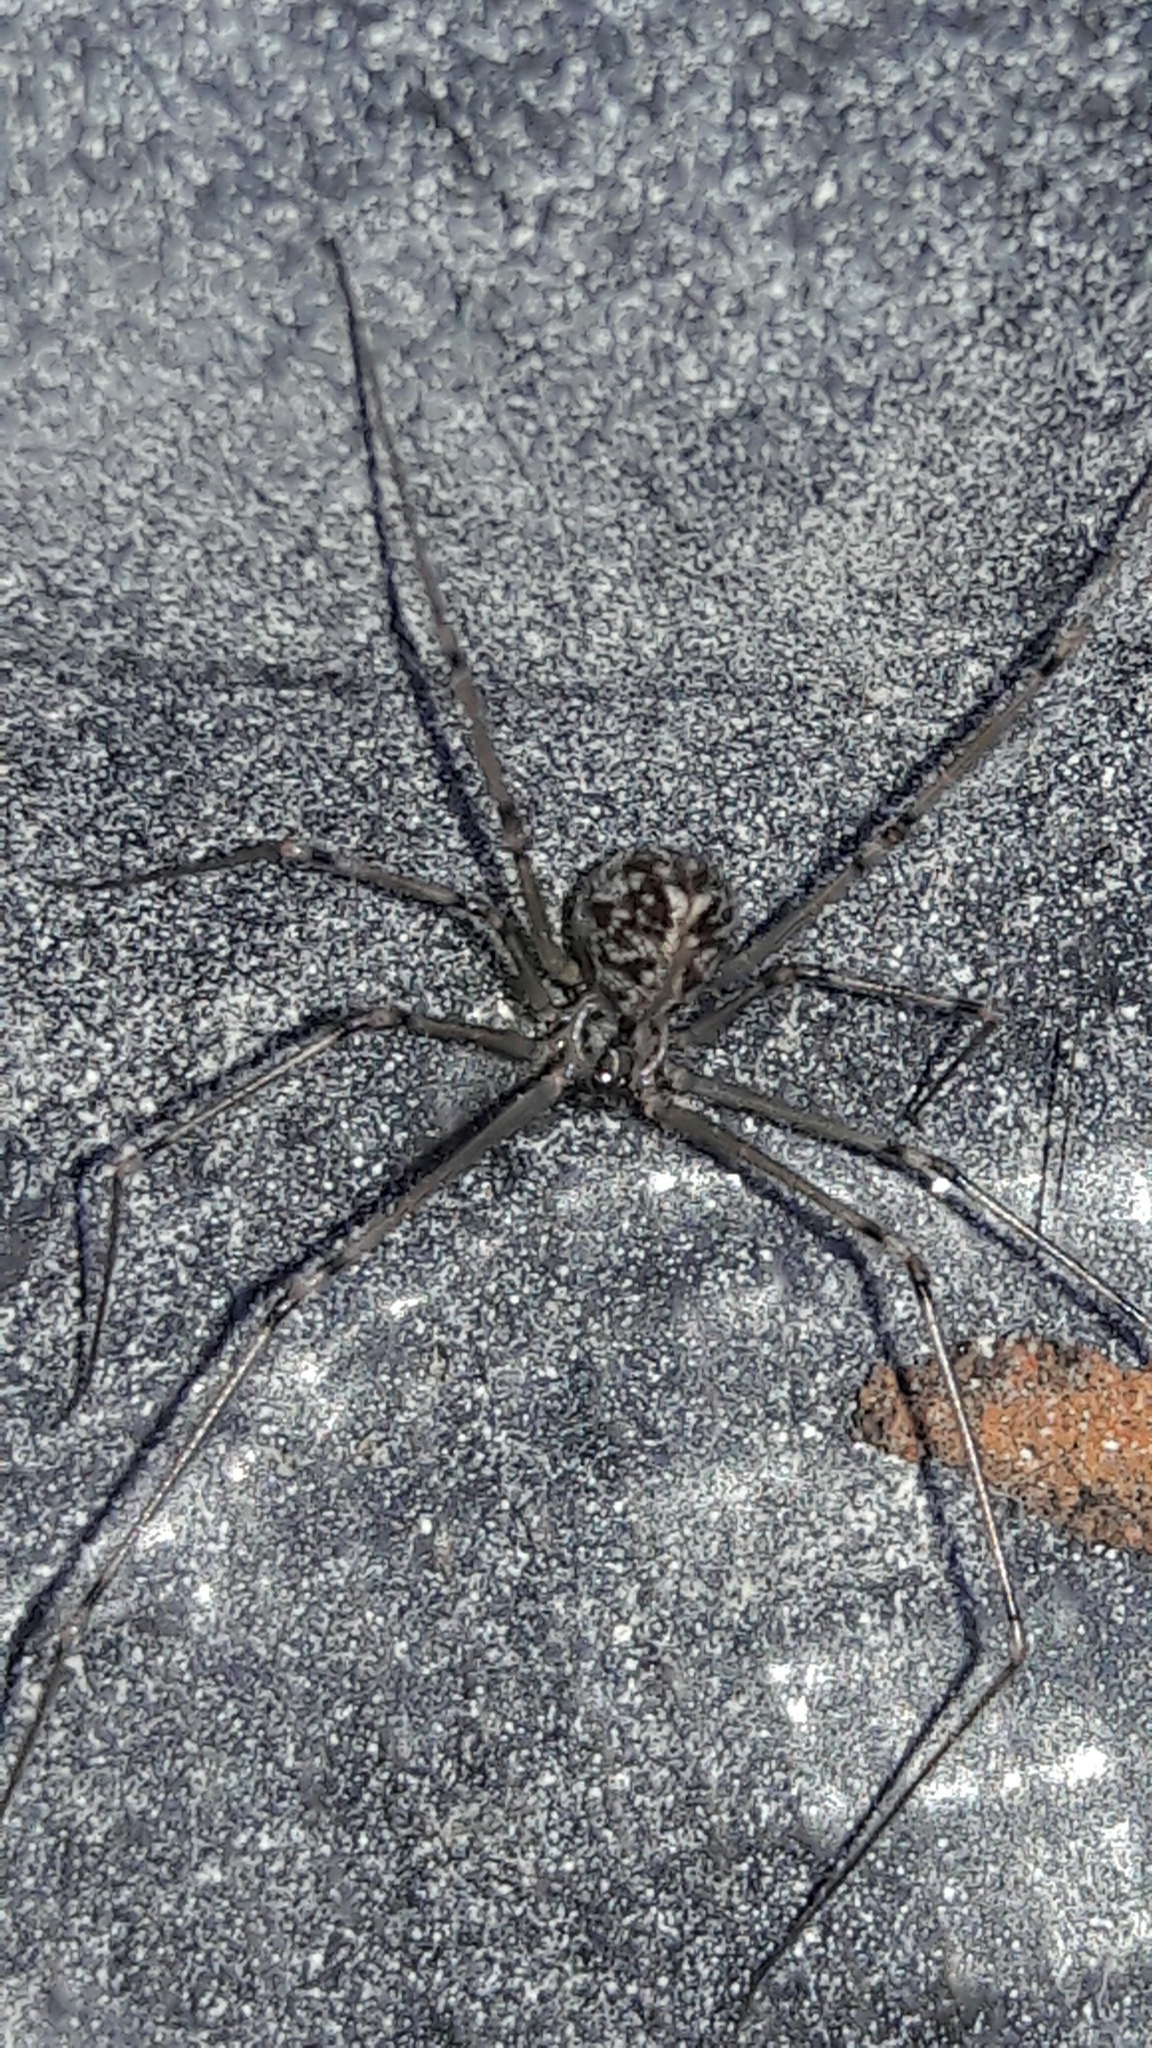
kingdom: Animalia
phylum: Arthropoda
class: Arachnida
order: Araneae
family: Pholcidae
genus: Physocyclus
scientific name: Physocyclus globosus
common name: Cellar spiders
